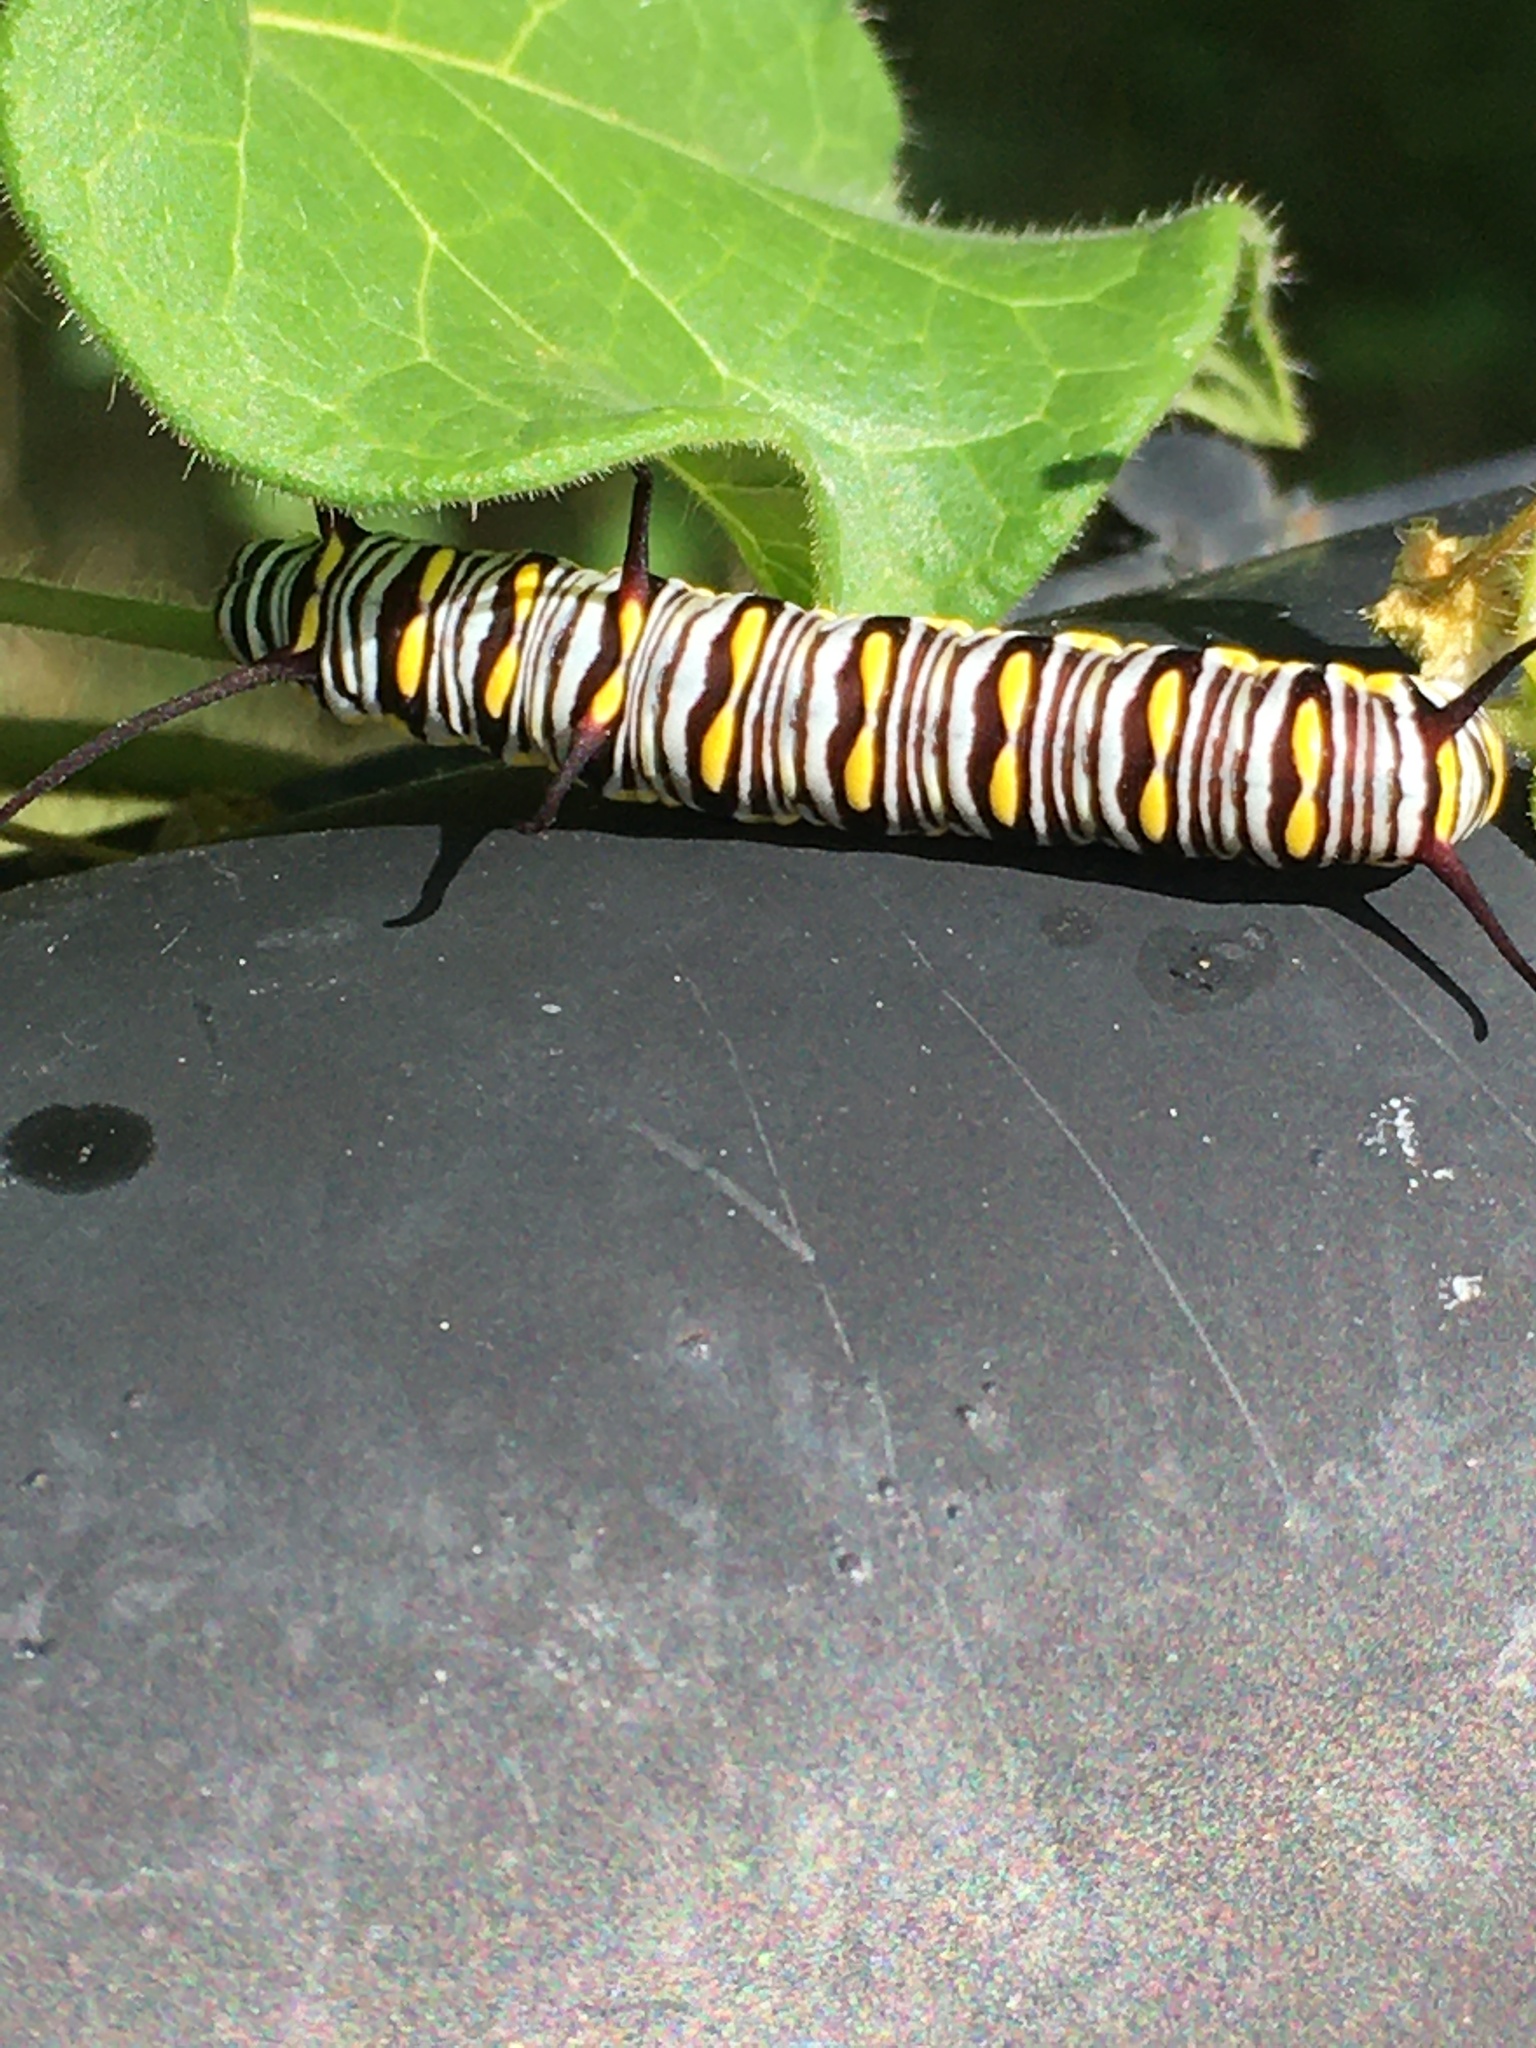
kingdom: Animalia
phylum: Arthropoda
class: Insecta
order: Lepidoptera
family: Nymphalidae
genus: Danaus
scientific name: Danaus gilippus
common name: Queen
